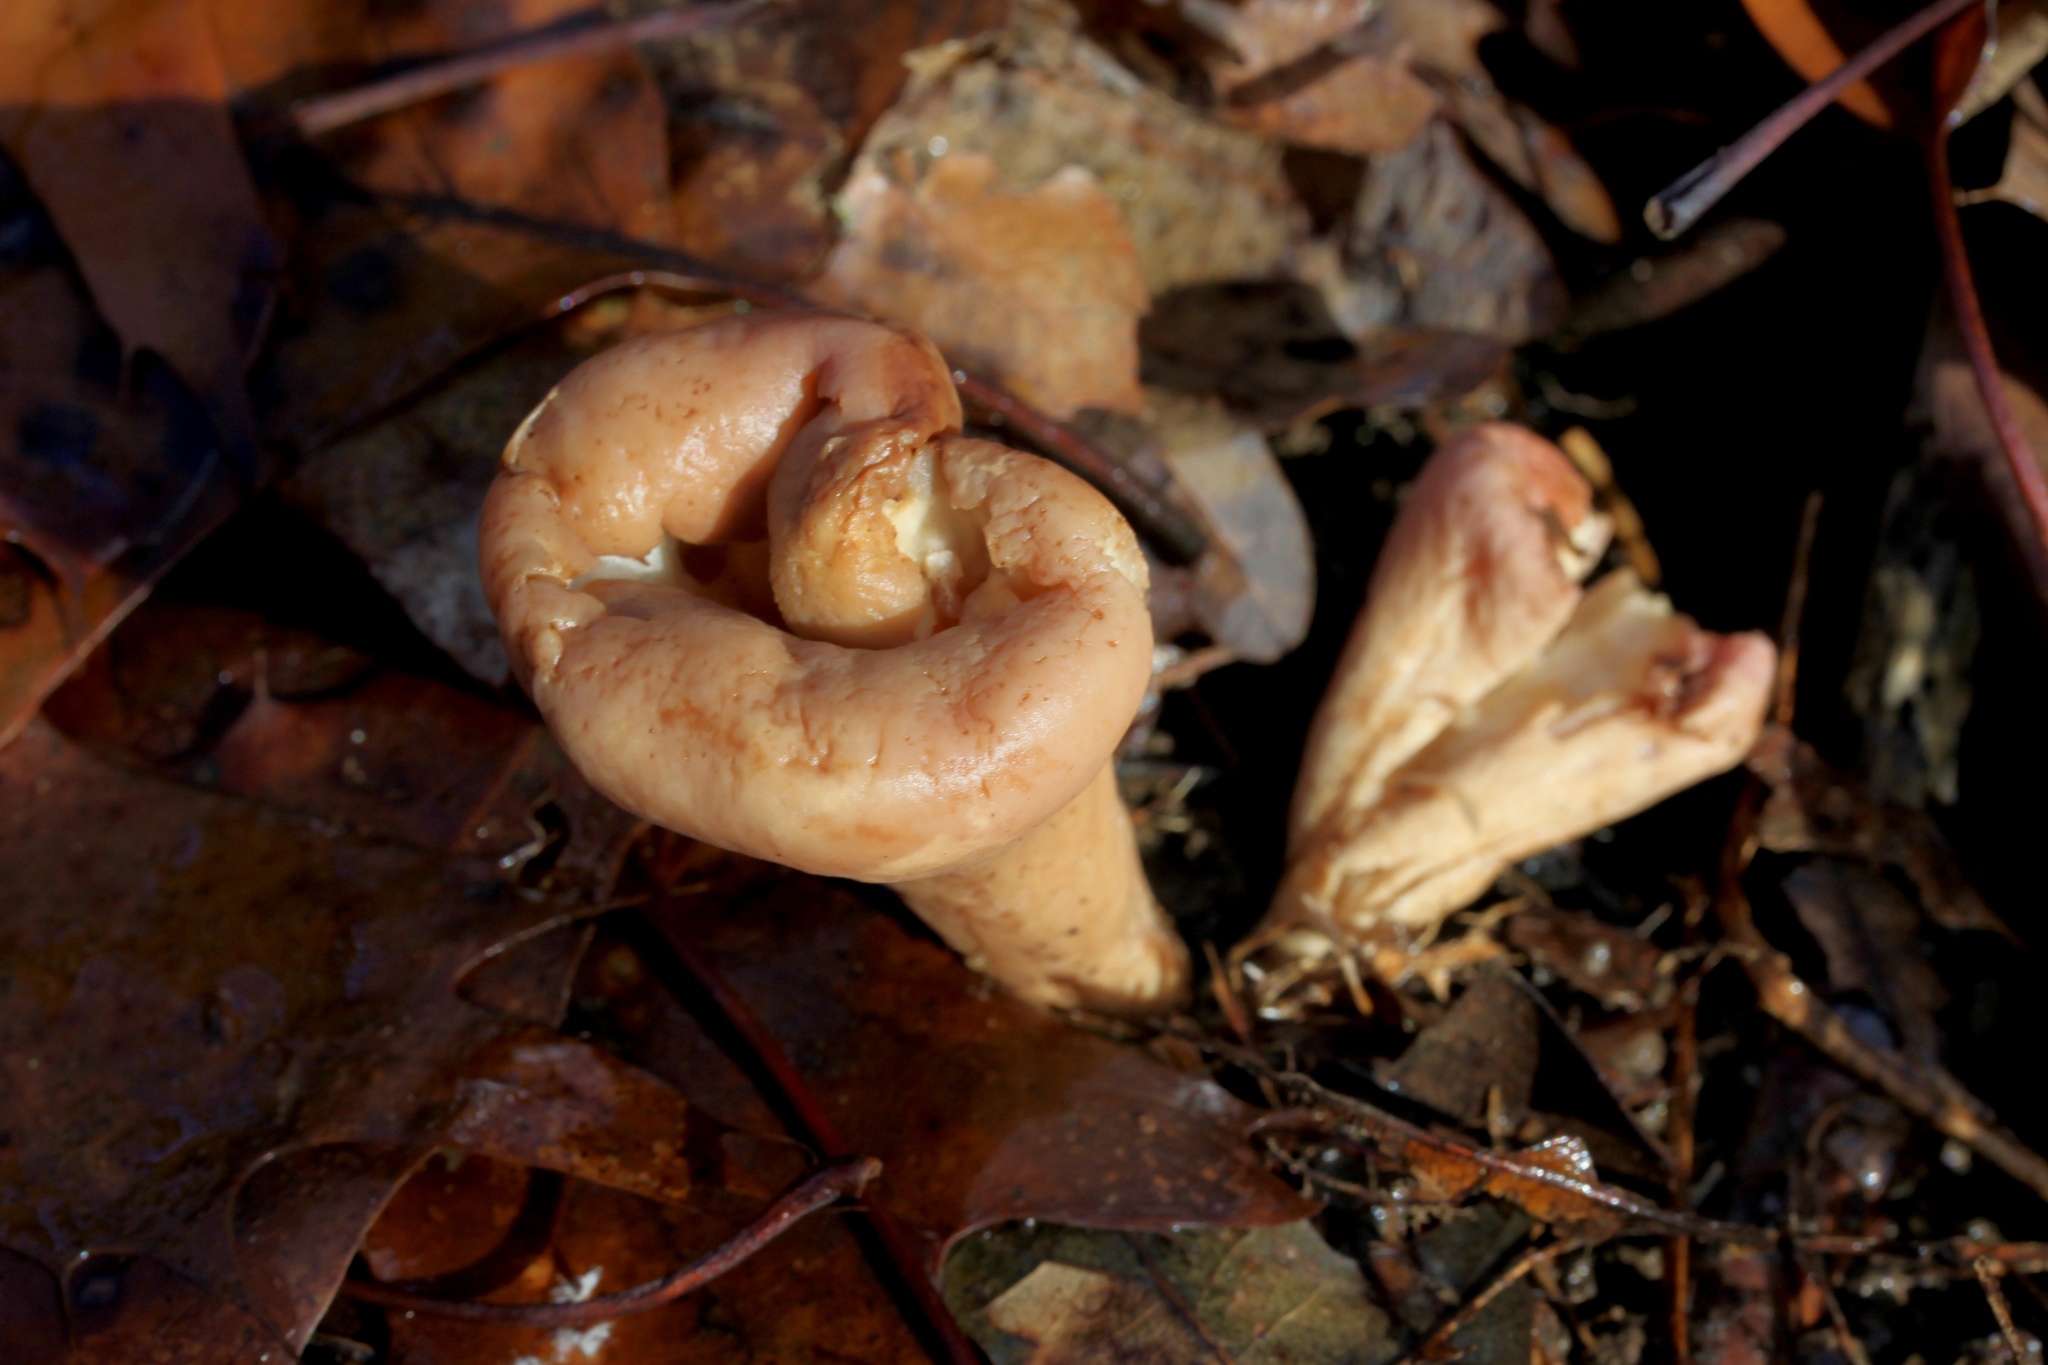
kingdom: Fungi
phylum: Basidiomycota
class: Agaricomycetes
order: Gomphales
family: Clavariadelphaceae
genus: Clavariadelphus
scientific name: Clavariadelphus truncatus
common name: Truncated club
